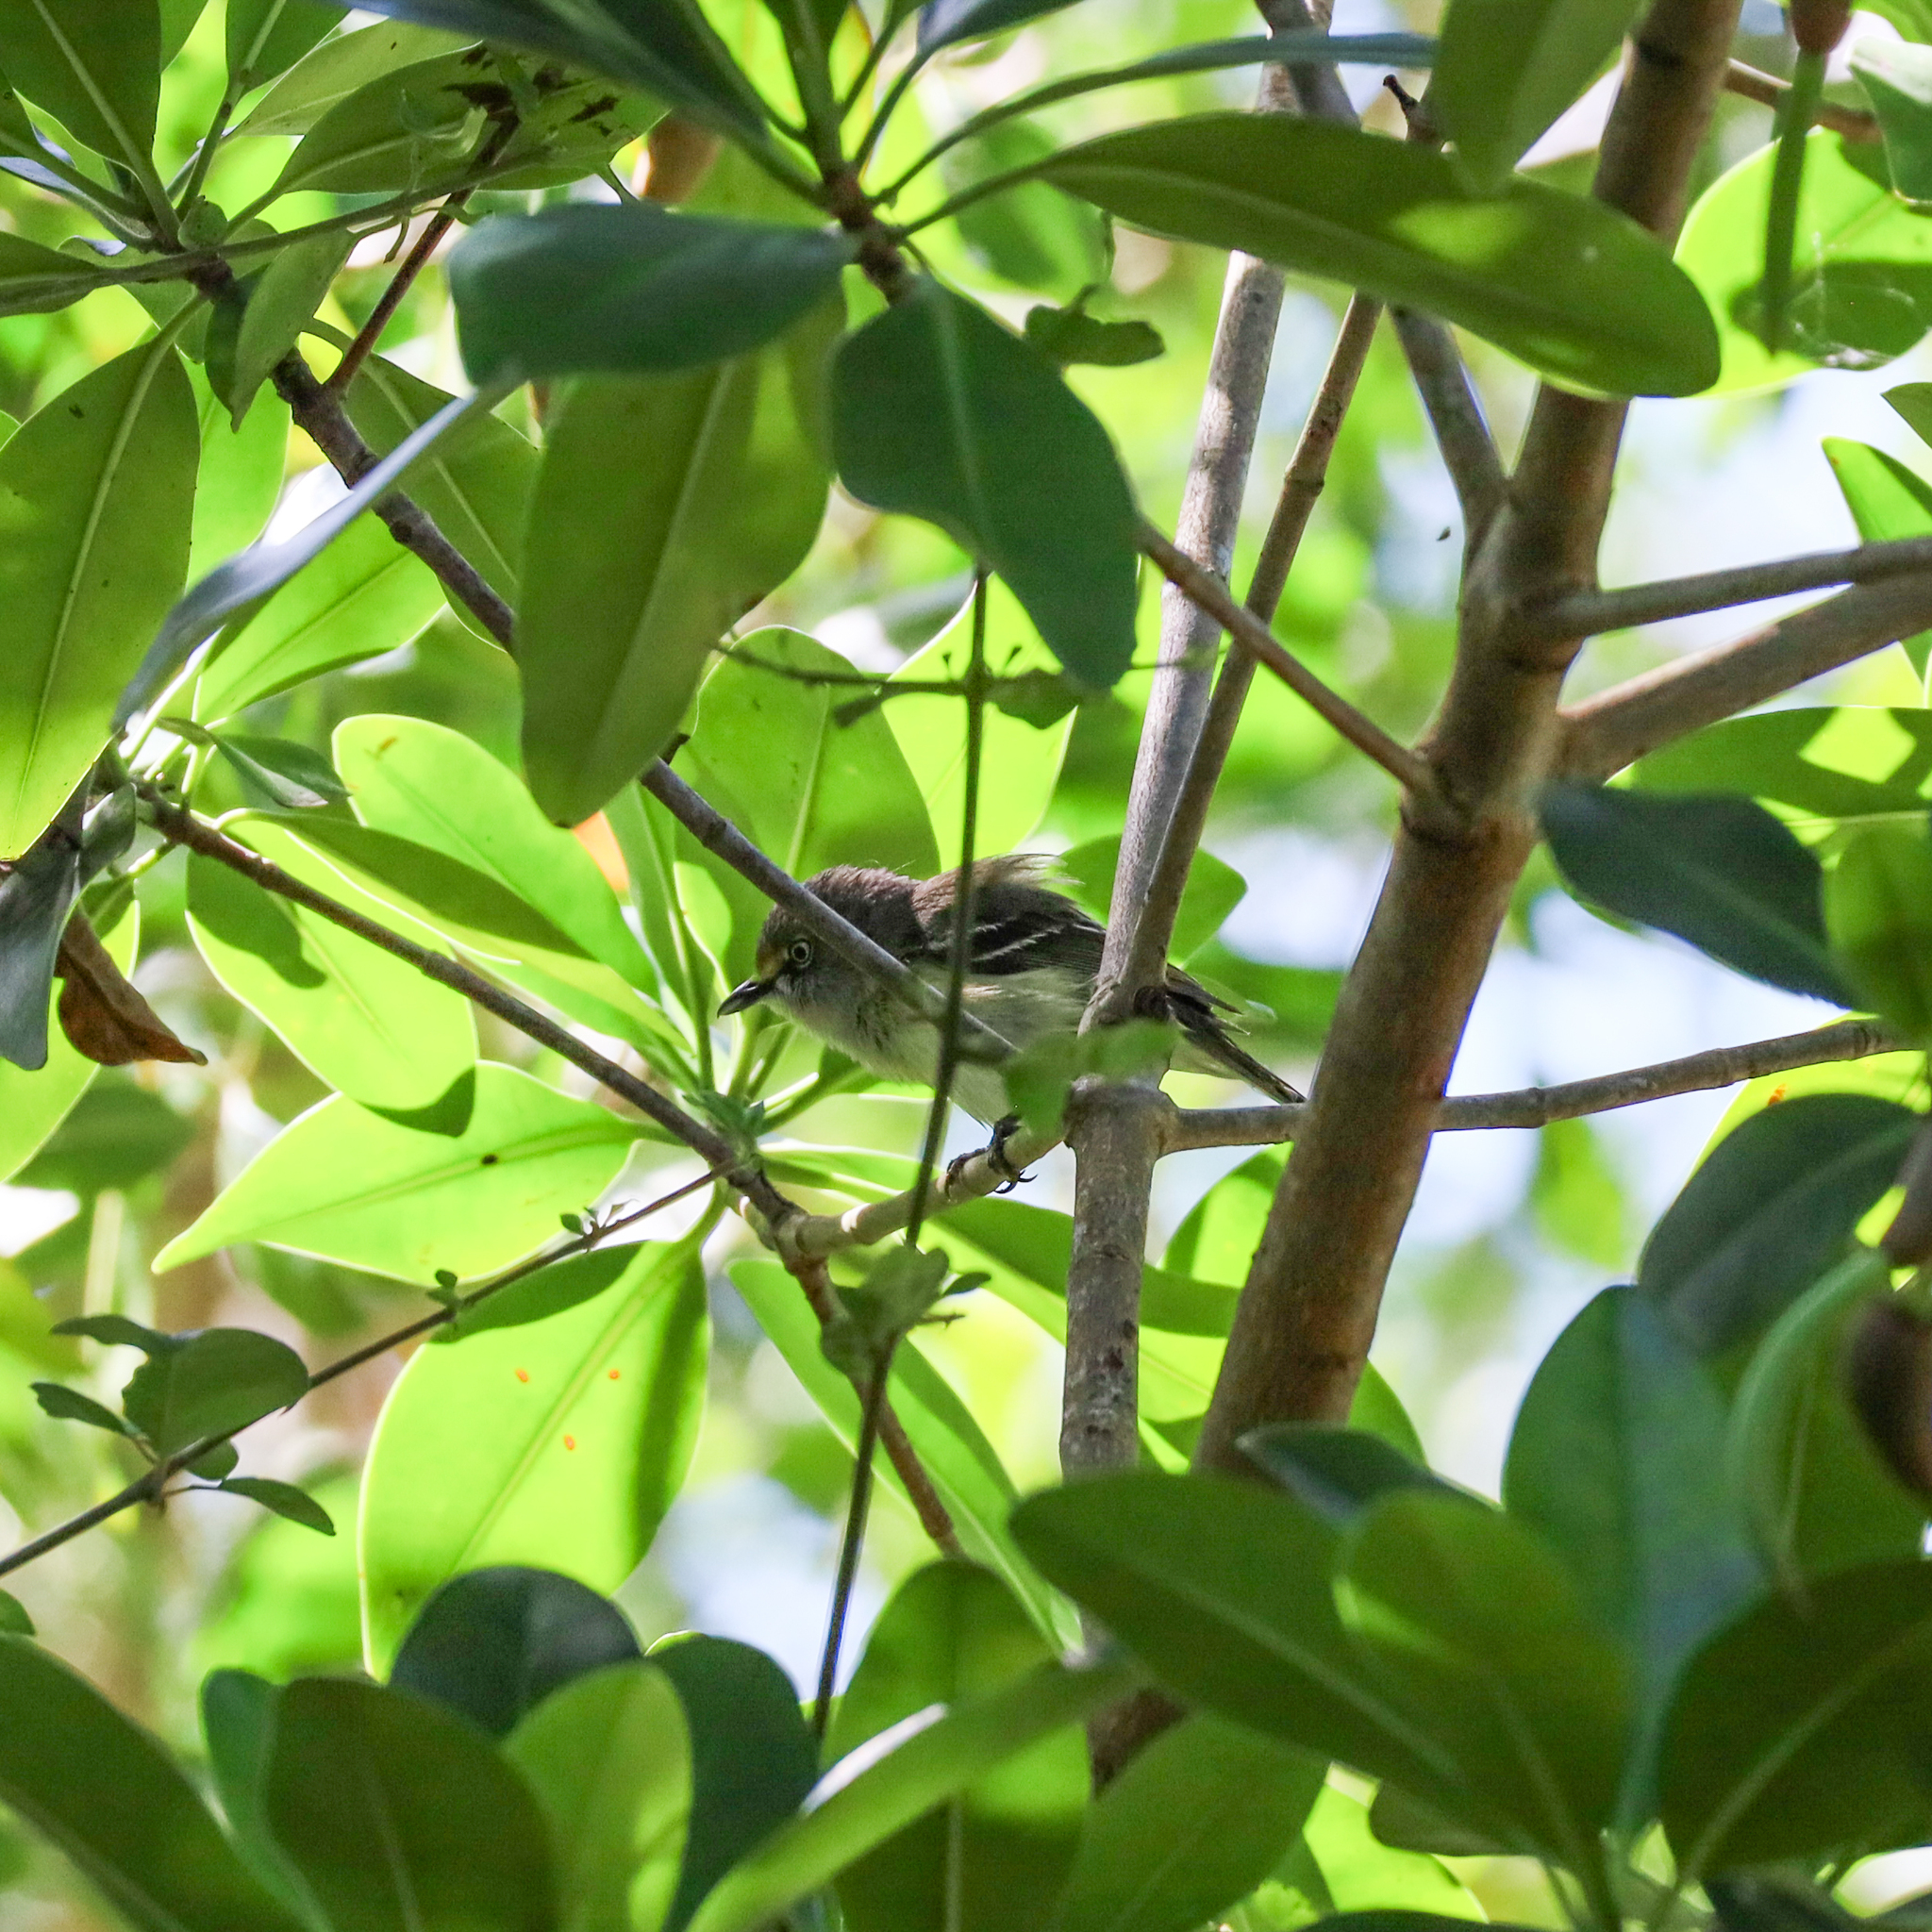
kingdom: Animalia
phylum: Chordata
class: Aves
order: Passeriformes
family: Vireonidae
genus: Vireo
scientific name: Vireo griseus
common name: White-eyed vireo
